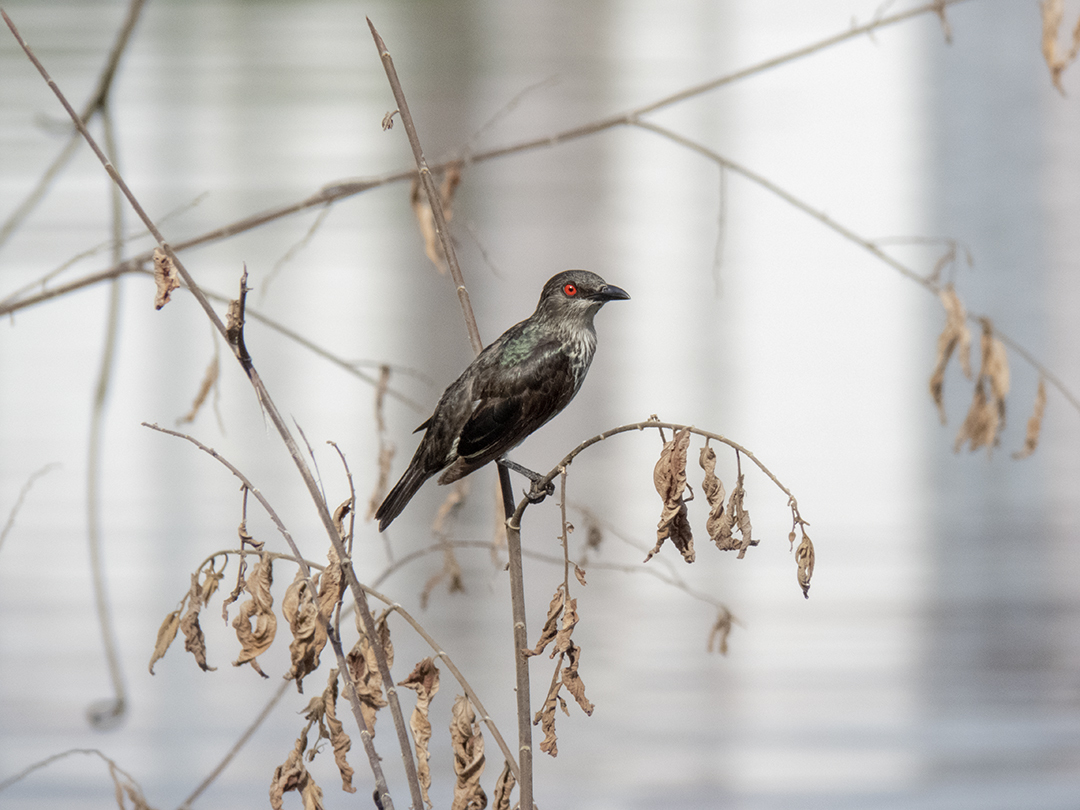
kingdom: Animalia
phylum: Chordata
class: Aves
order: Passeriformes
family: Sturnidae
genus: Aplonis
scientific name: Aplonis panayensis
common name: Asian glossy starling
